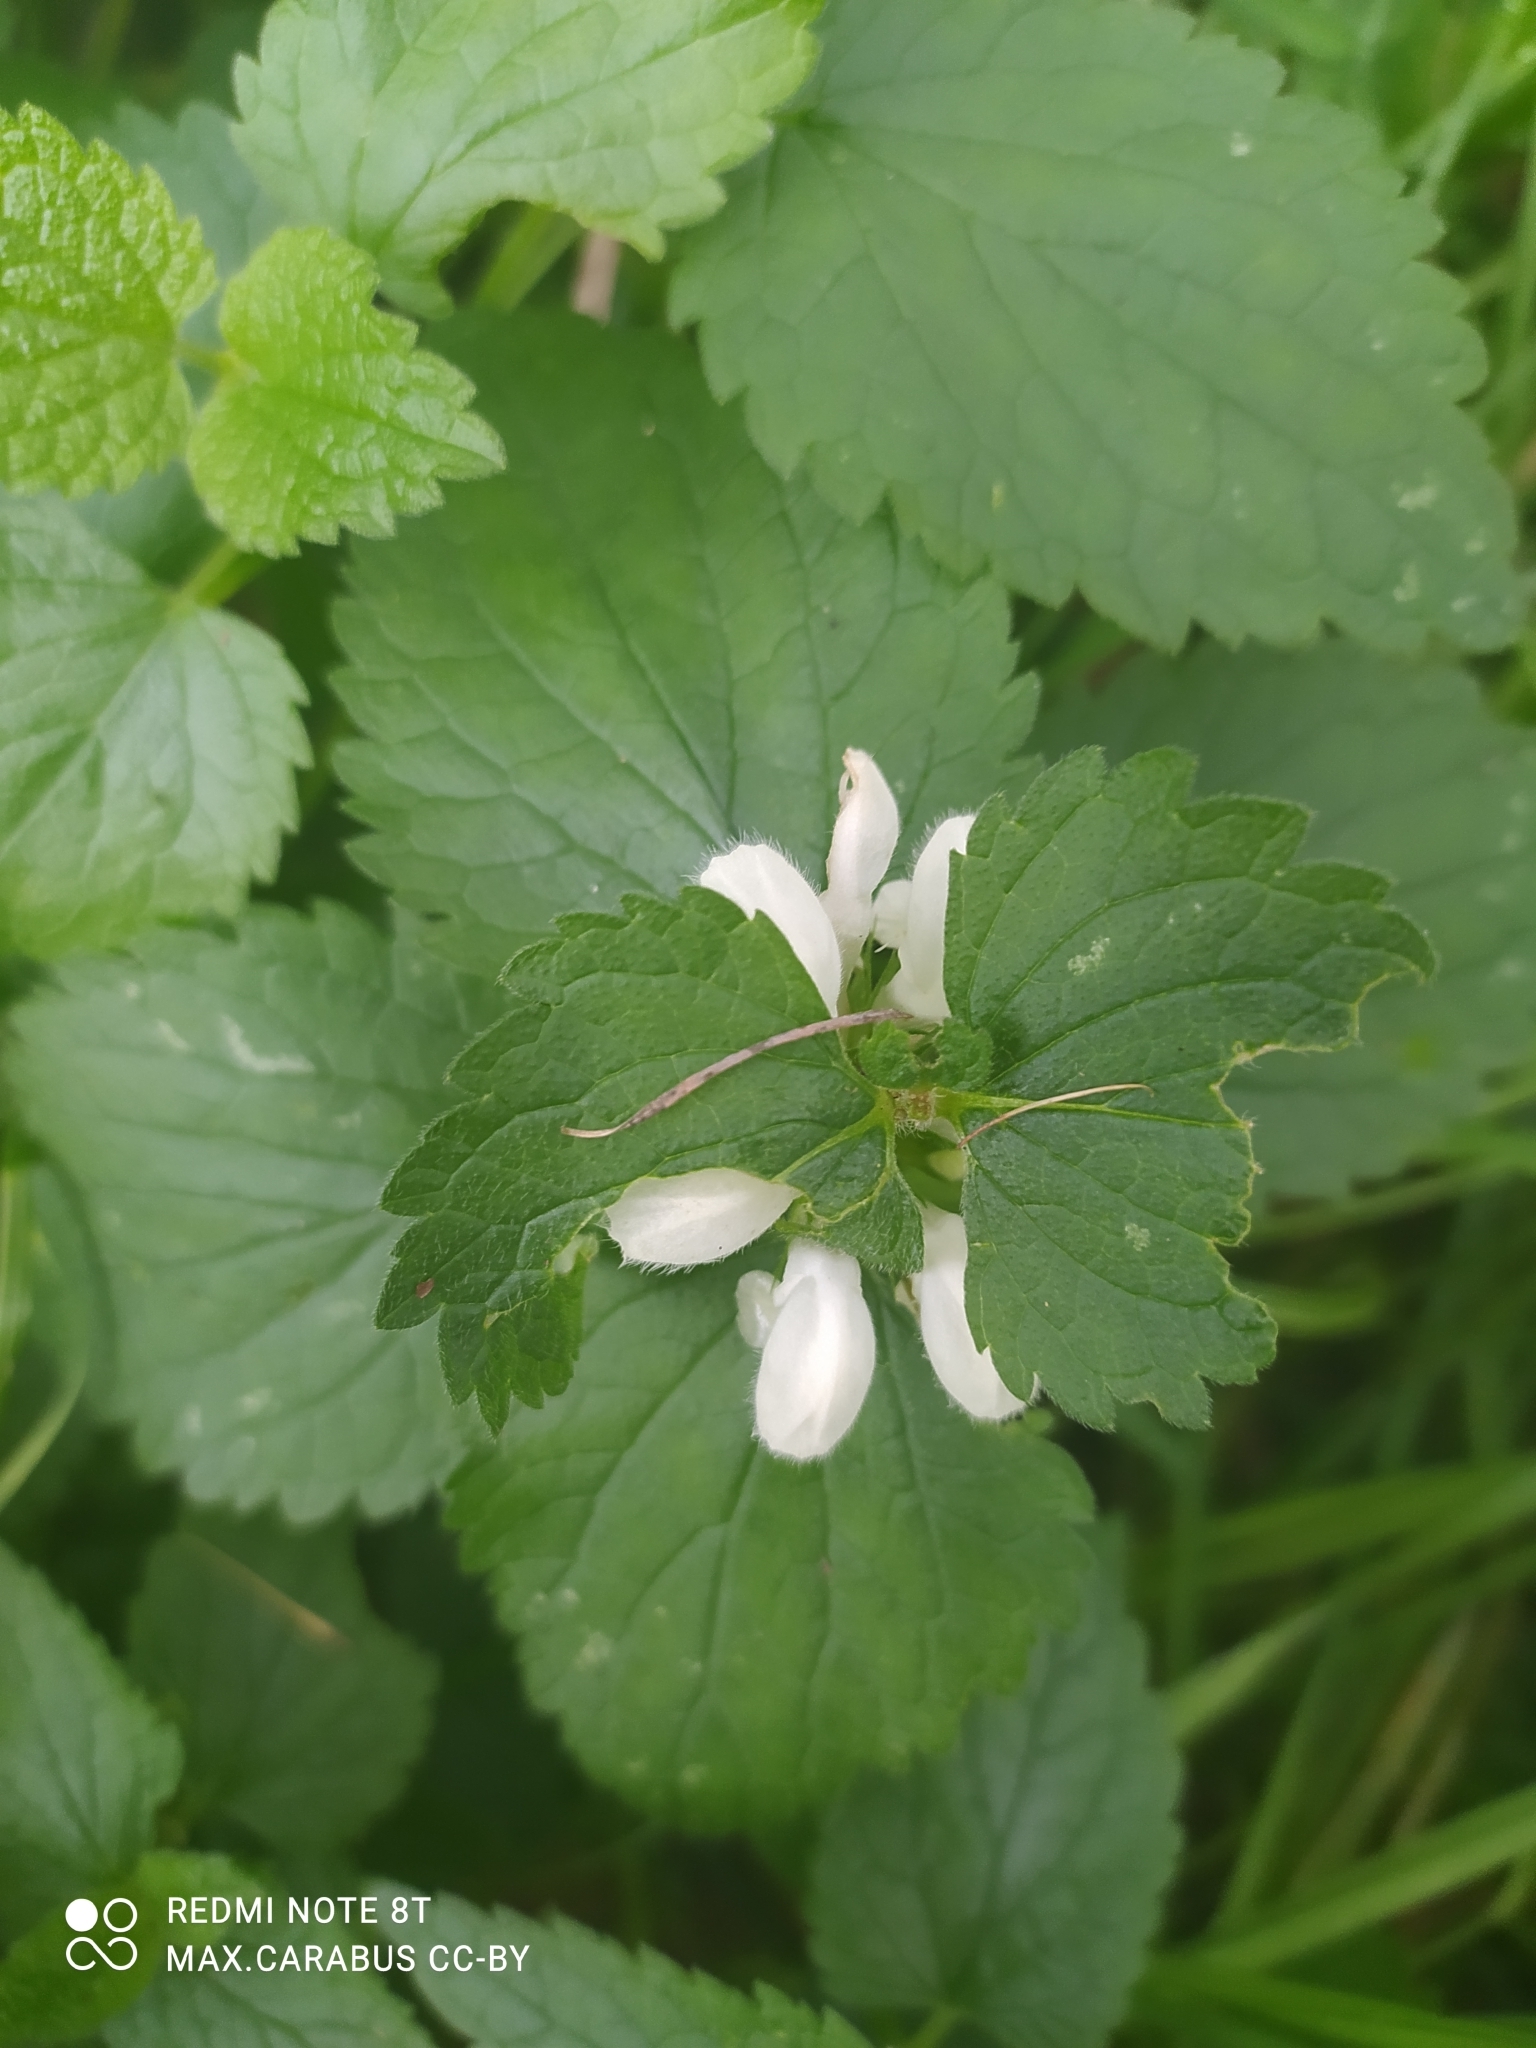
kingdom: Plantae
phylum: Tracheophyta
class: Magnoliopsida
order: Lamiales
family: Lamiaceae
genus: Lamium
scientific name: Lamium album
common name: White dead-nettle
